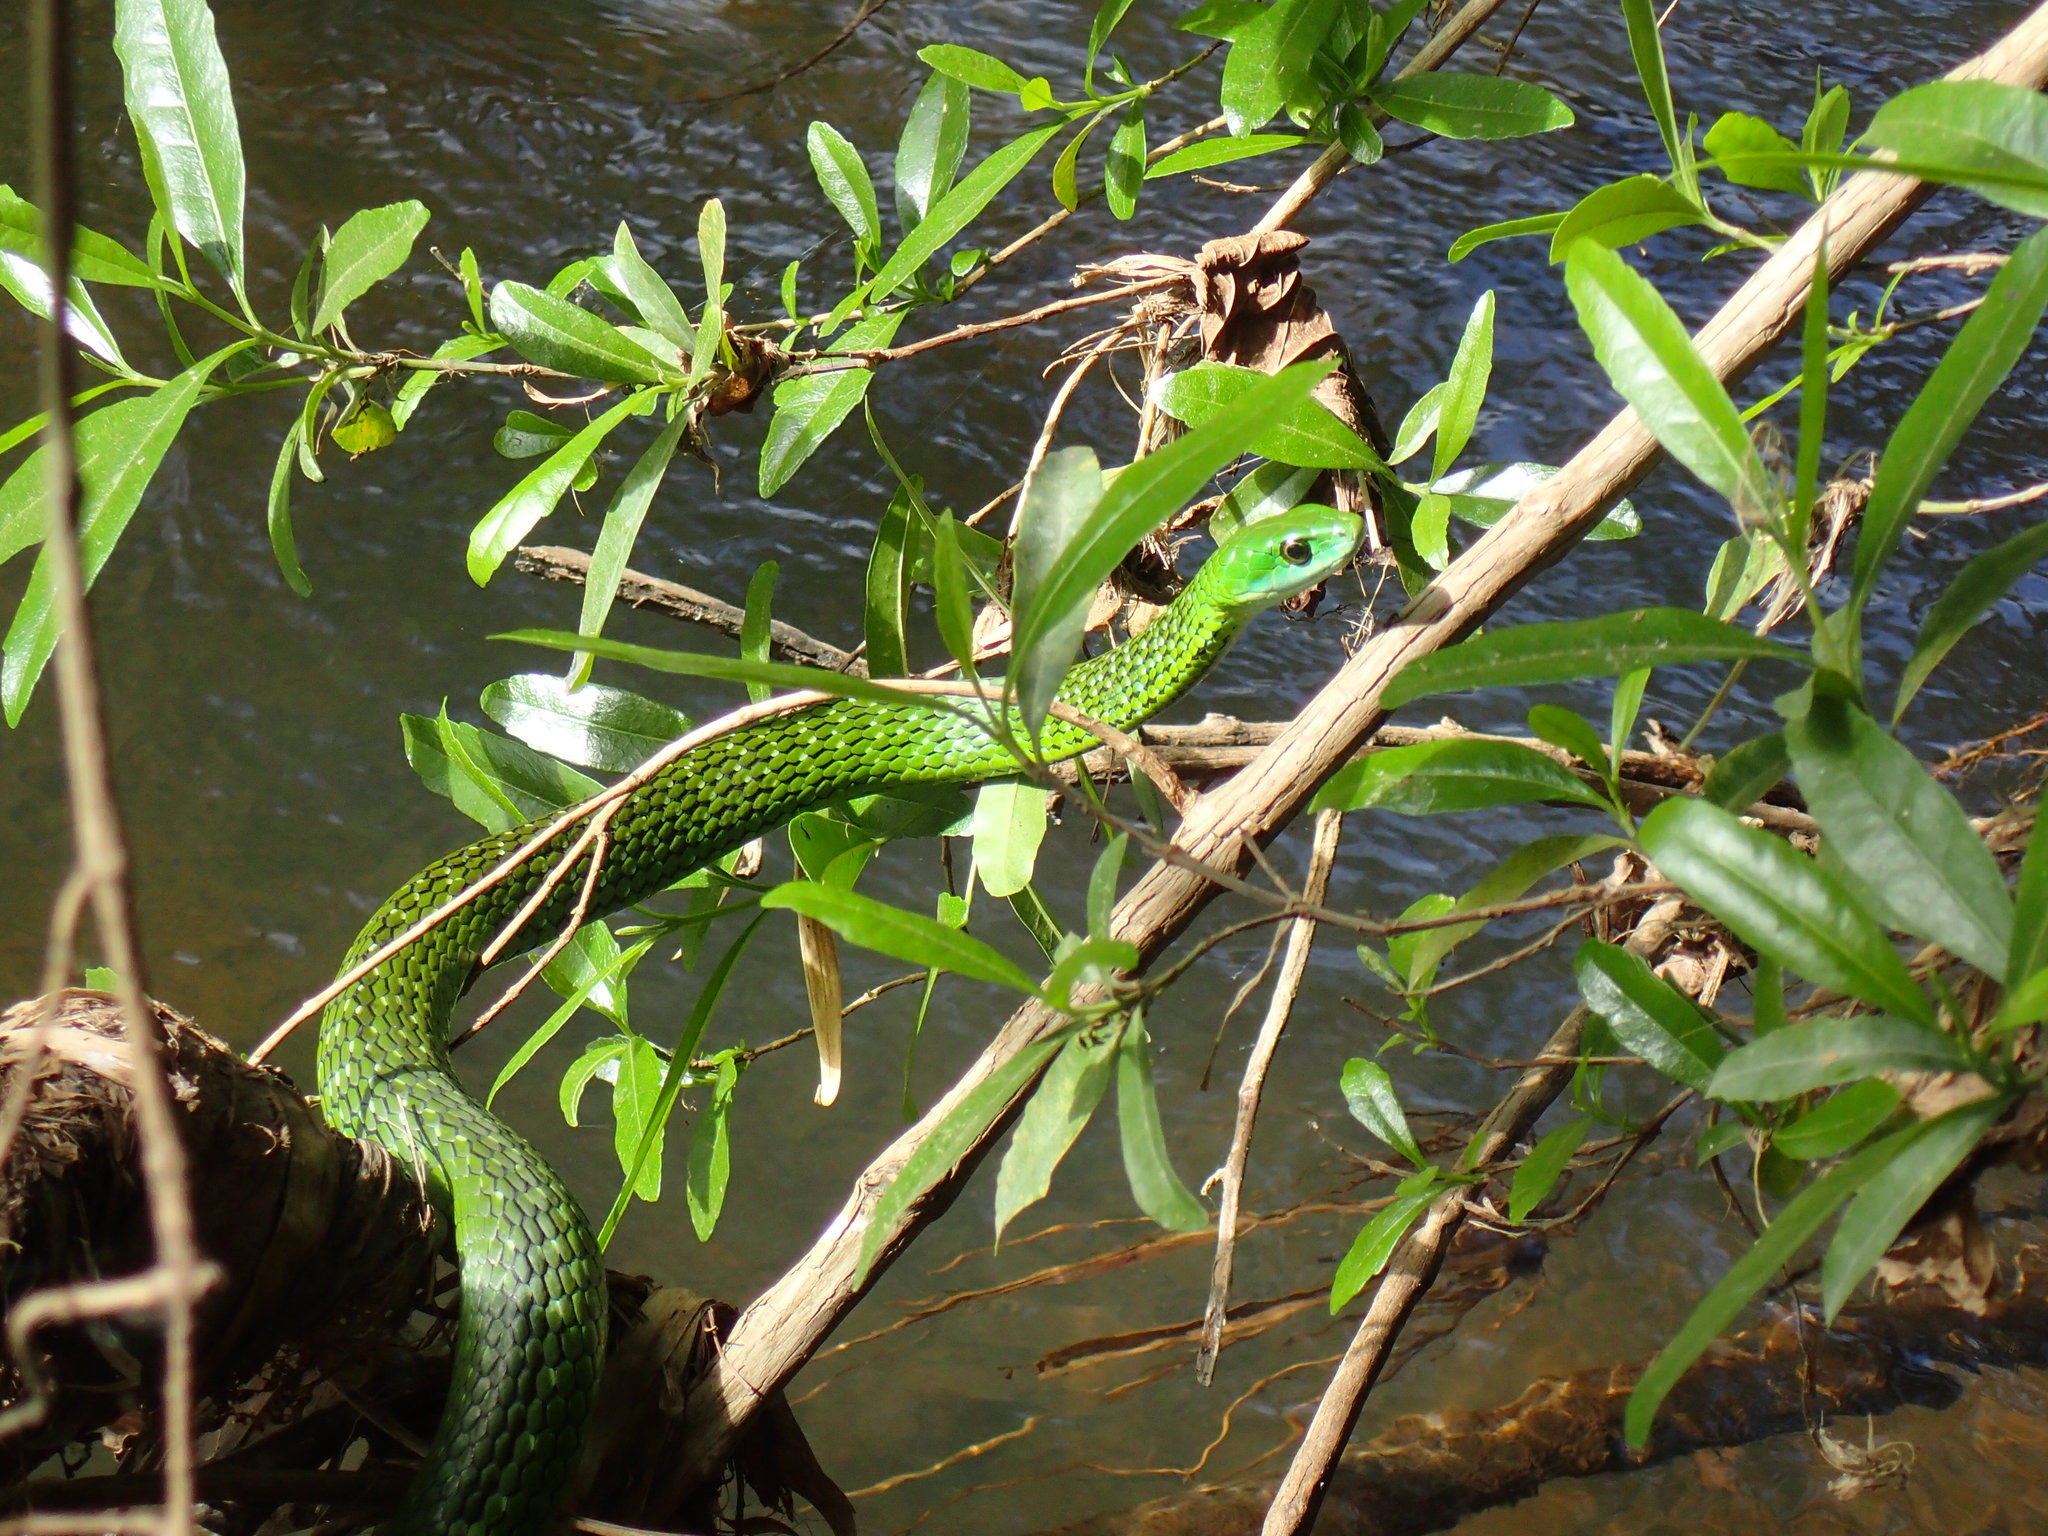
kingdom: Animalia
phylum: Chordata
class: Squamata
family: Colubridae
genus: Philothamnus
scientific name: Philothamnus angolensis
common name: Angola green snake
